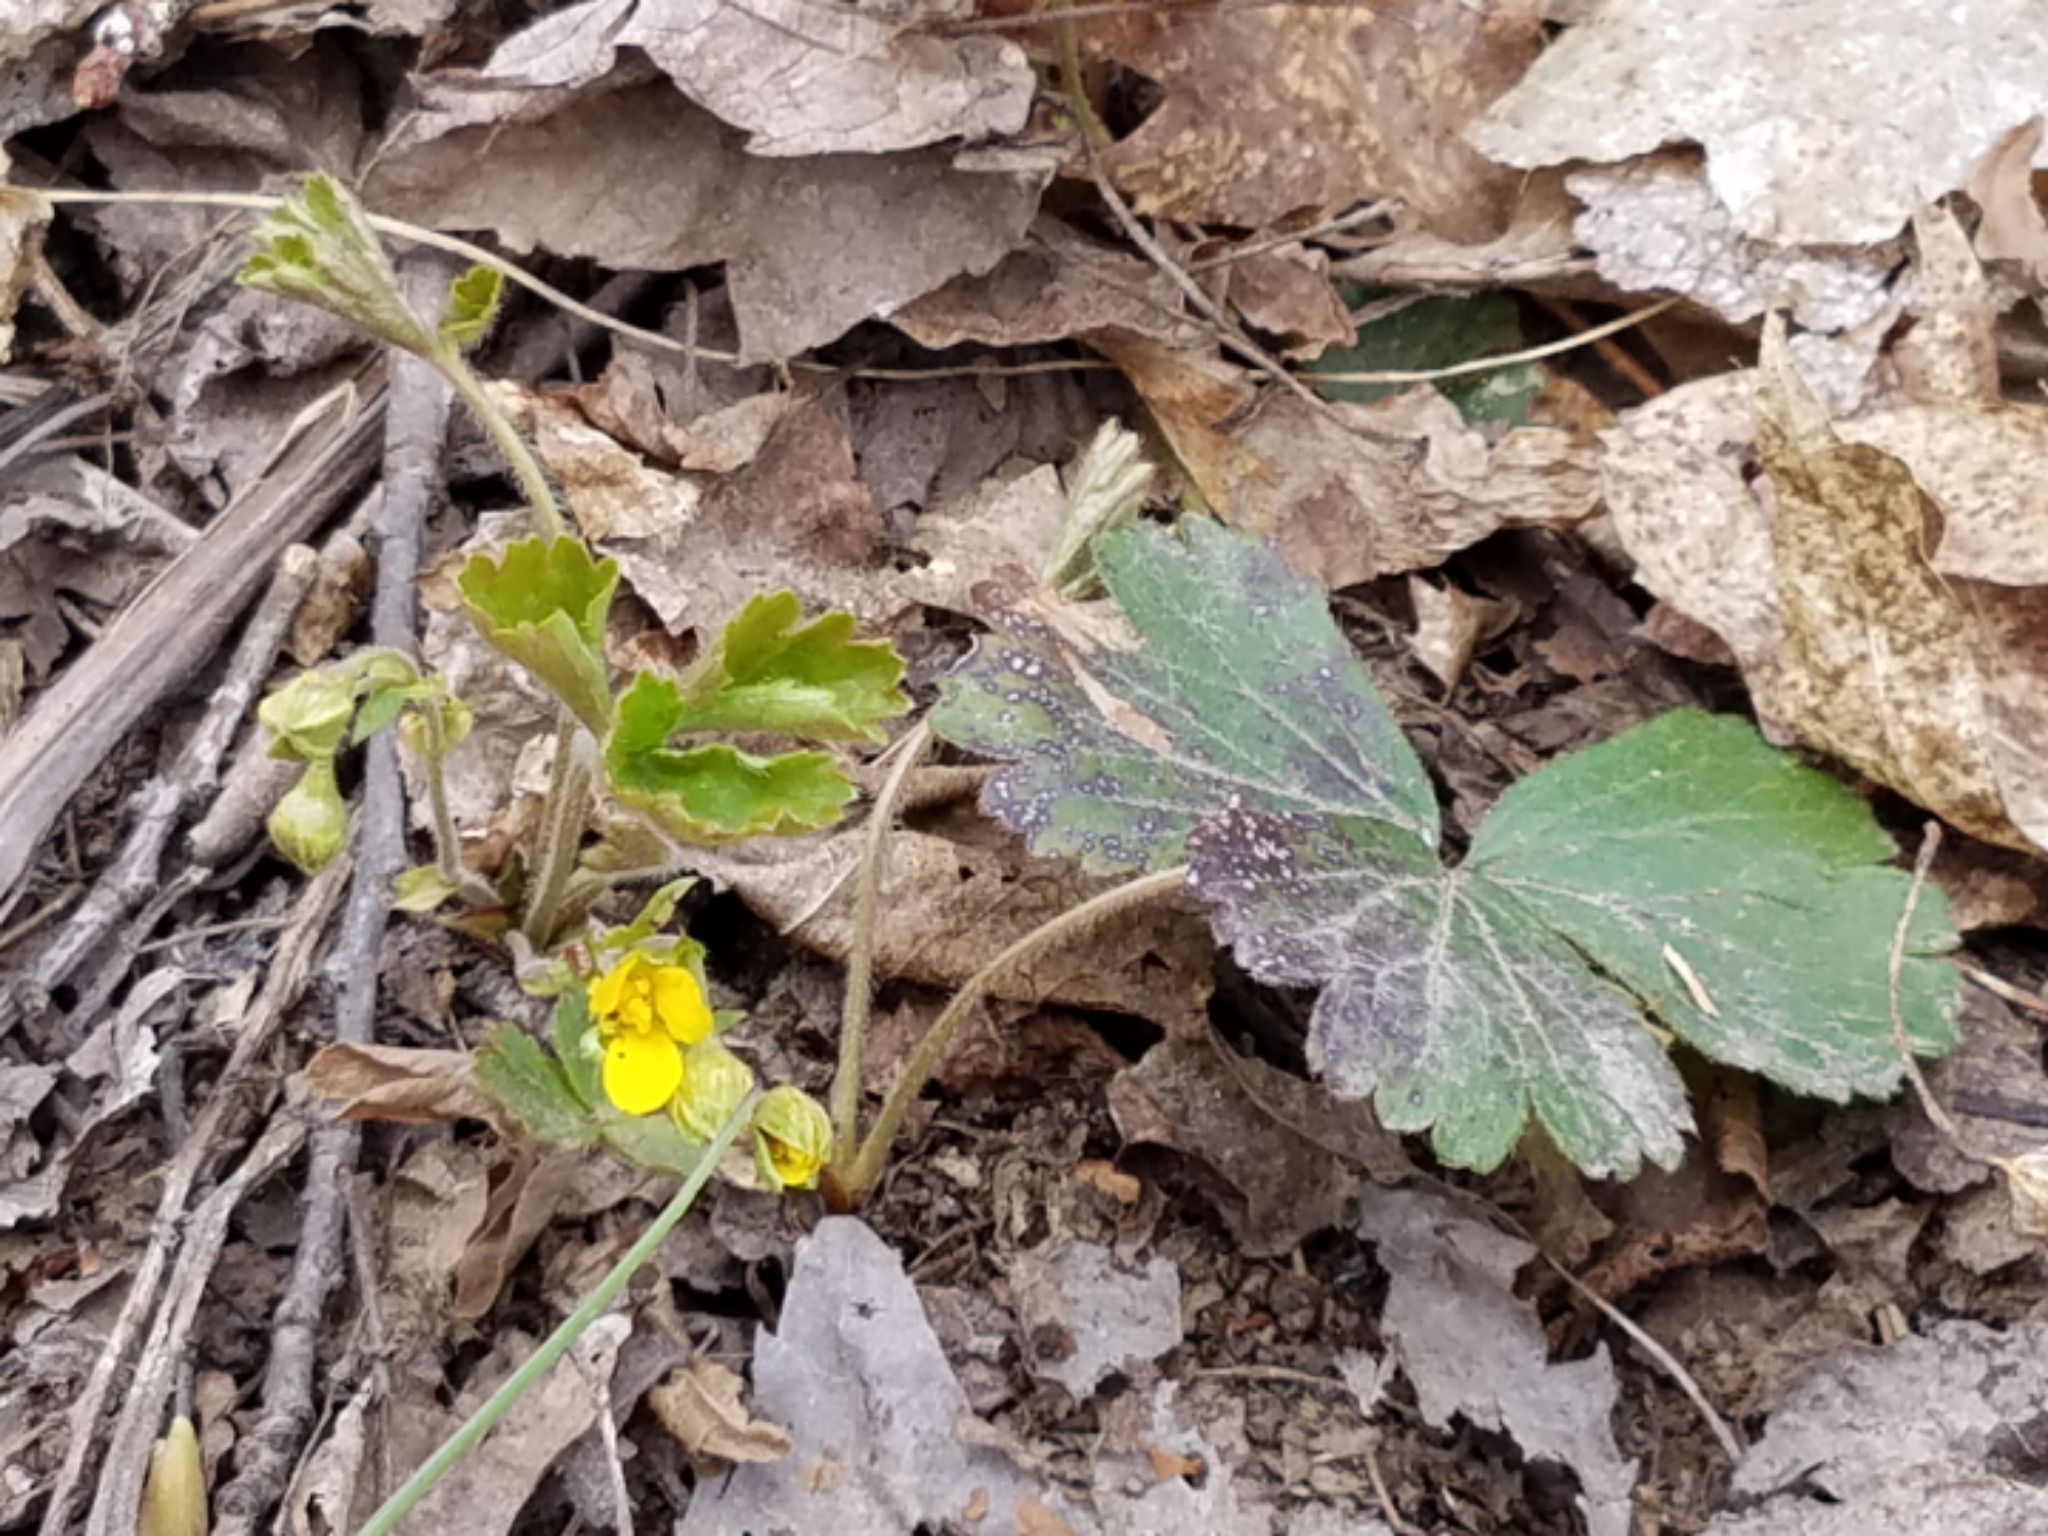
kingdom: Plantae
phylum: Tracheophyta
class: Magnoliopsida
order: Rosales
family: Rosaceae
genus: Geum
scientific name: Geum fragarioides
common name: Appalachian barren strawberry
